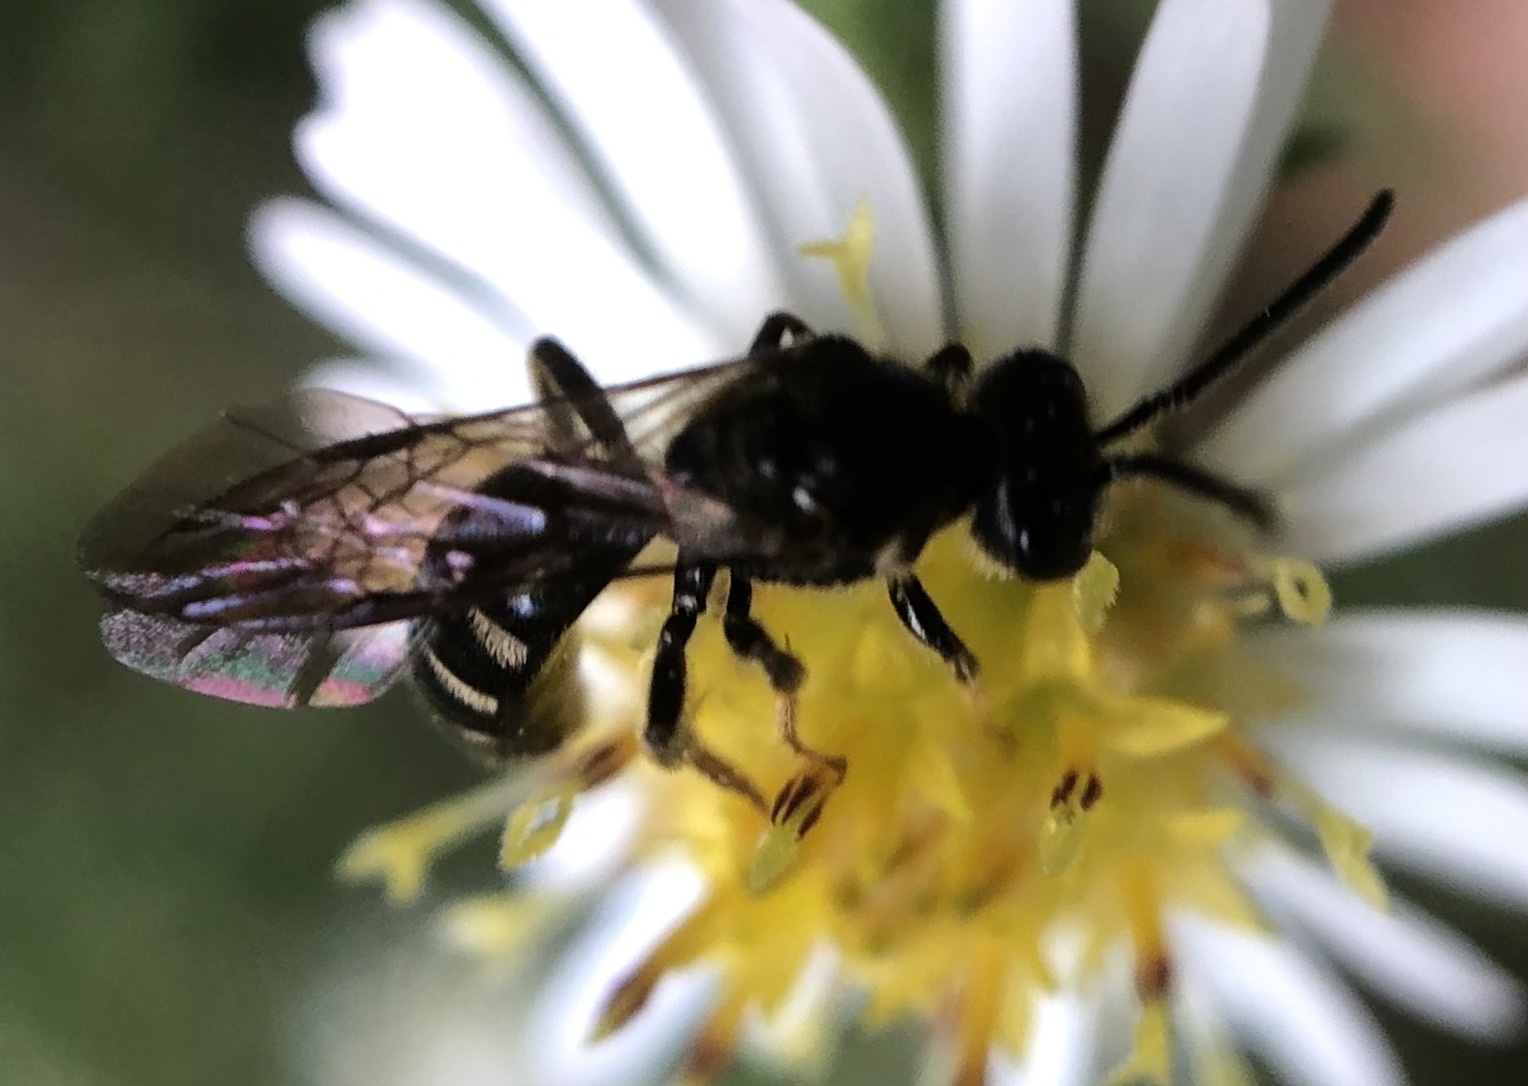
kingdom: Animalia
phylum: Arthropoda
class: Insecta
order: Hymenoptera
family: Halictidae
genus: Lasioglossum
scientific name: Lasioglossum fuscipenne
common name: Brown-winged sweat bee
